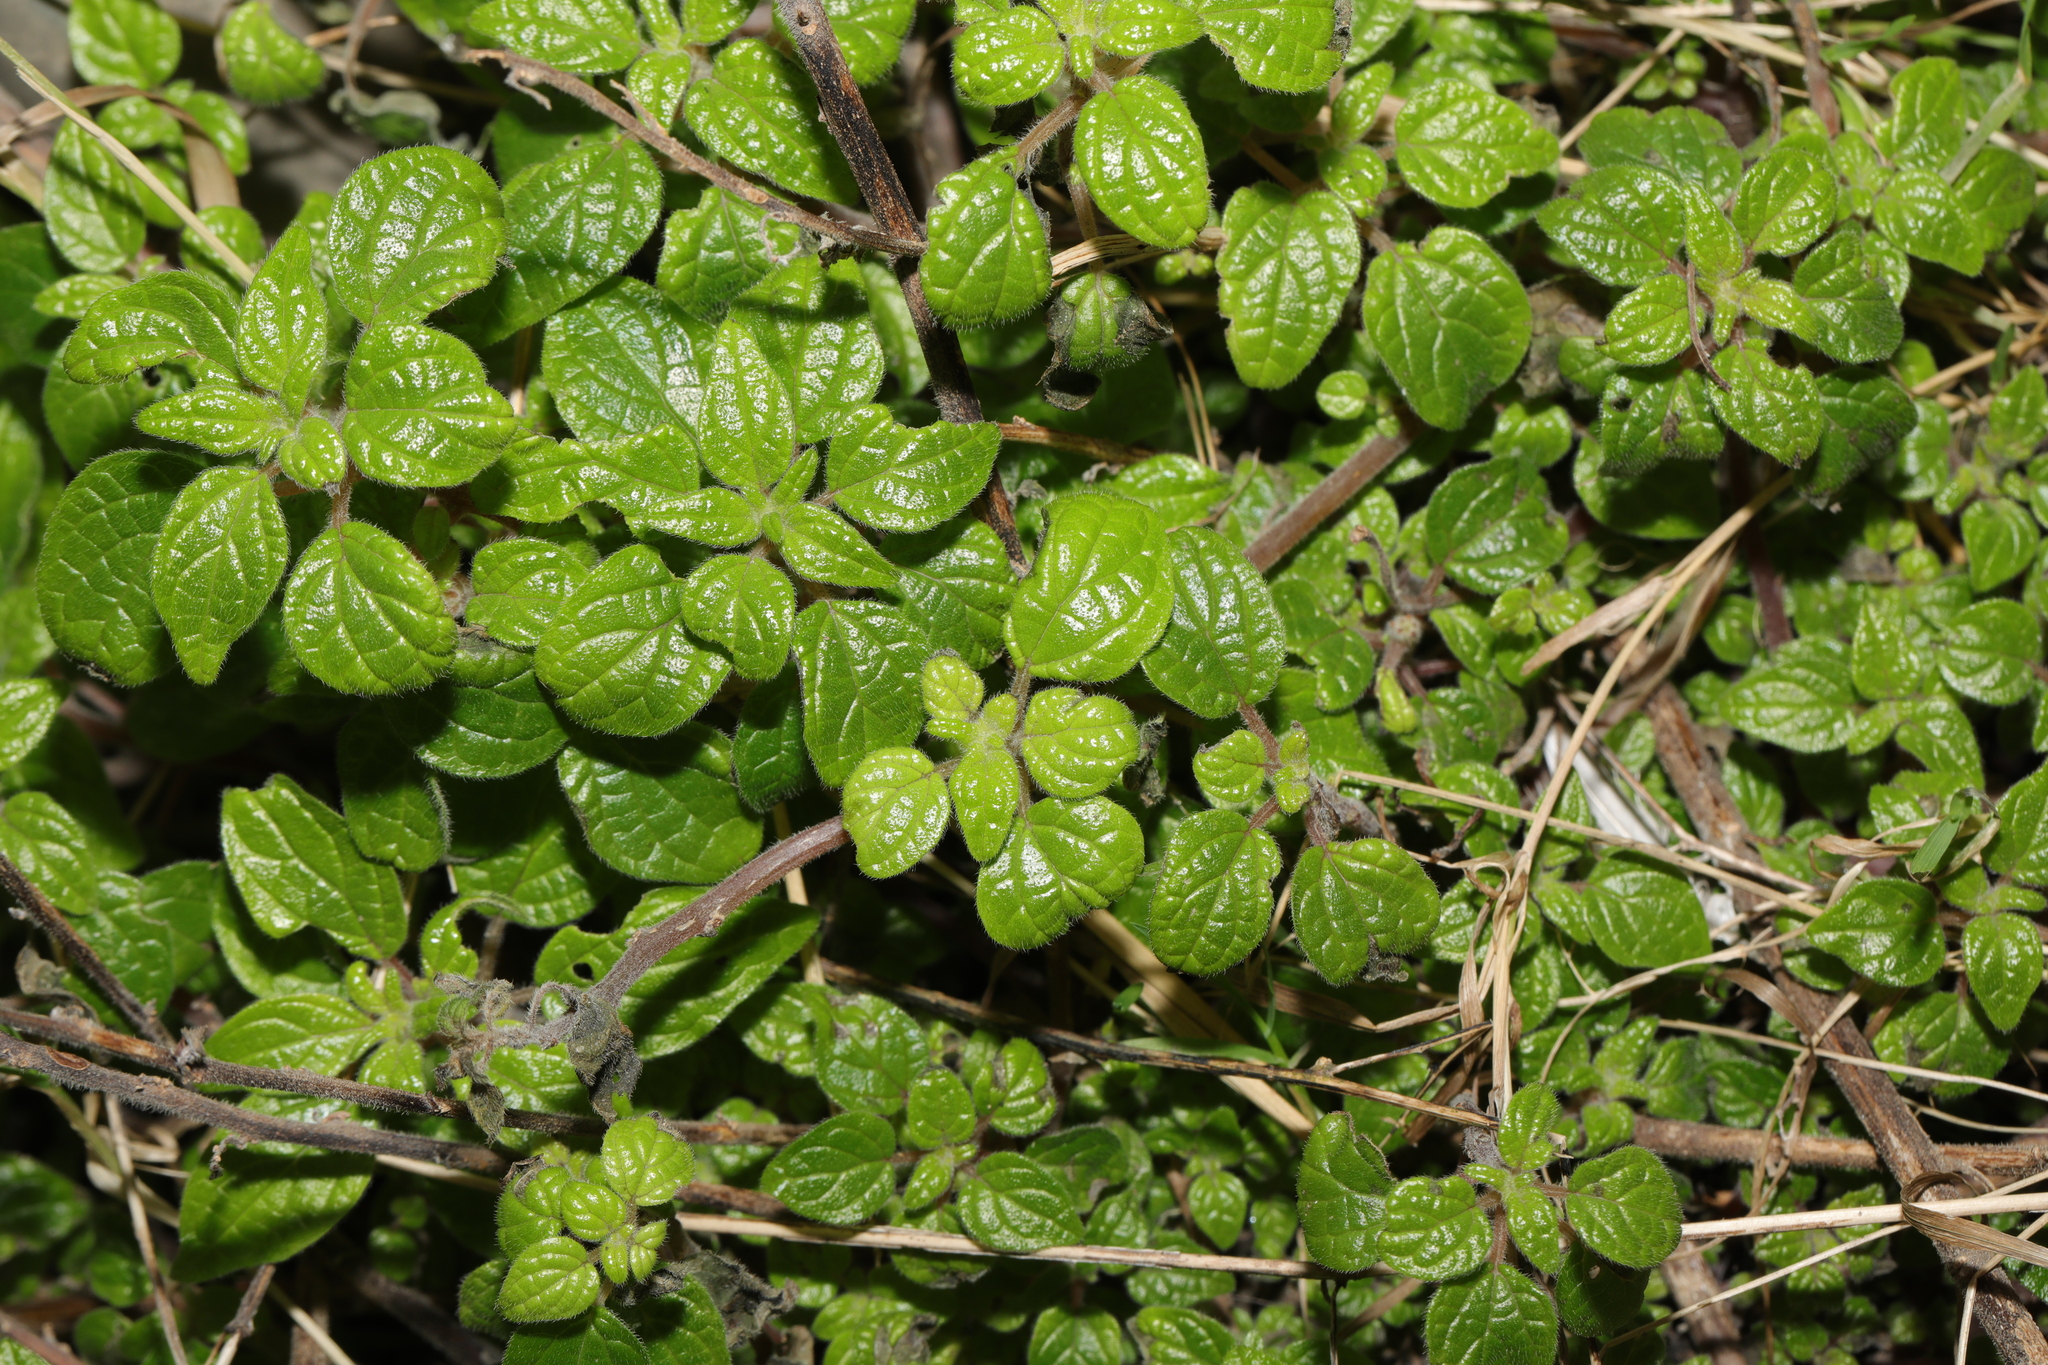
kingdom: Plantae
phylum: Tracheophyta
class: Magnoliopsida
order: Rosales
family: Urticaceae
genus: Parietaria
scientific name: Parietaria judaica
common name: Pellitory-of-the-wall
